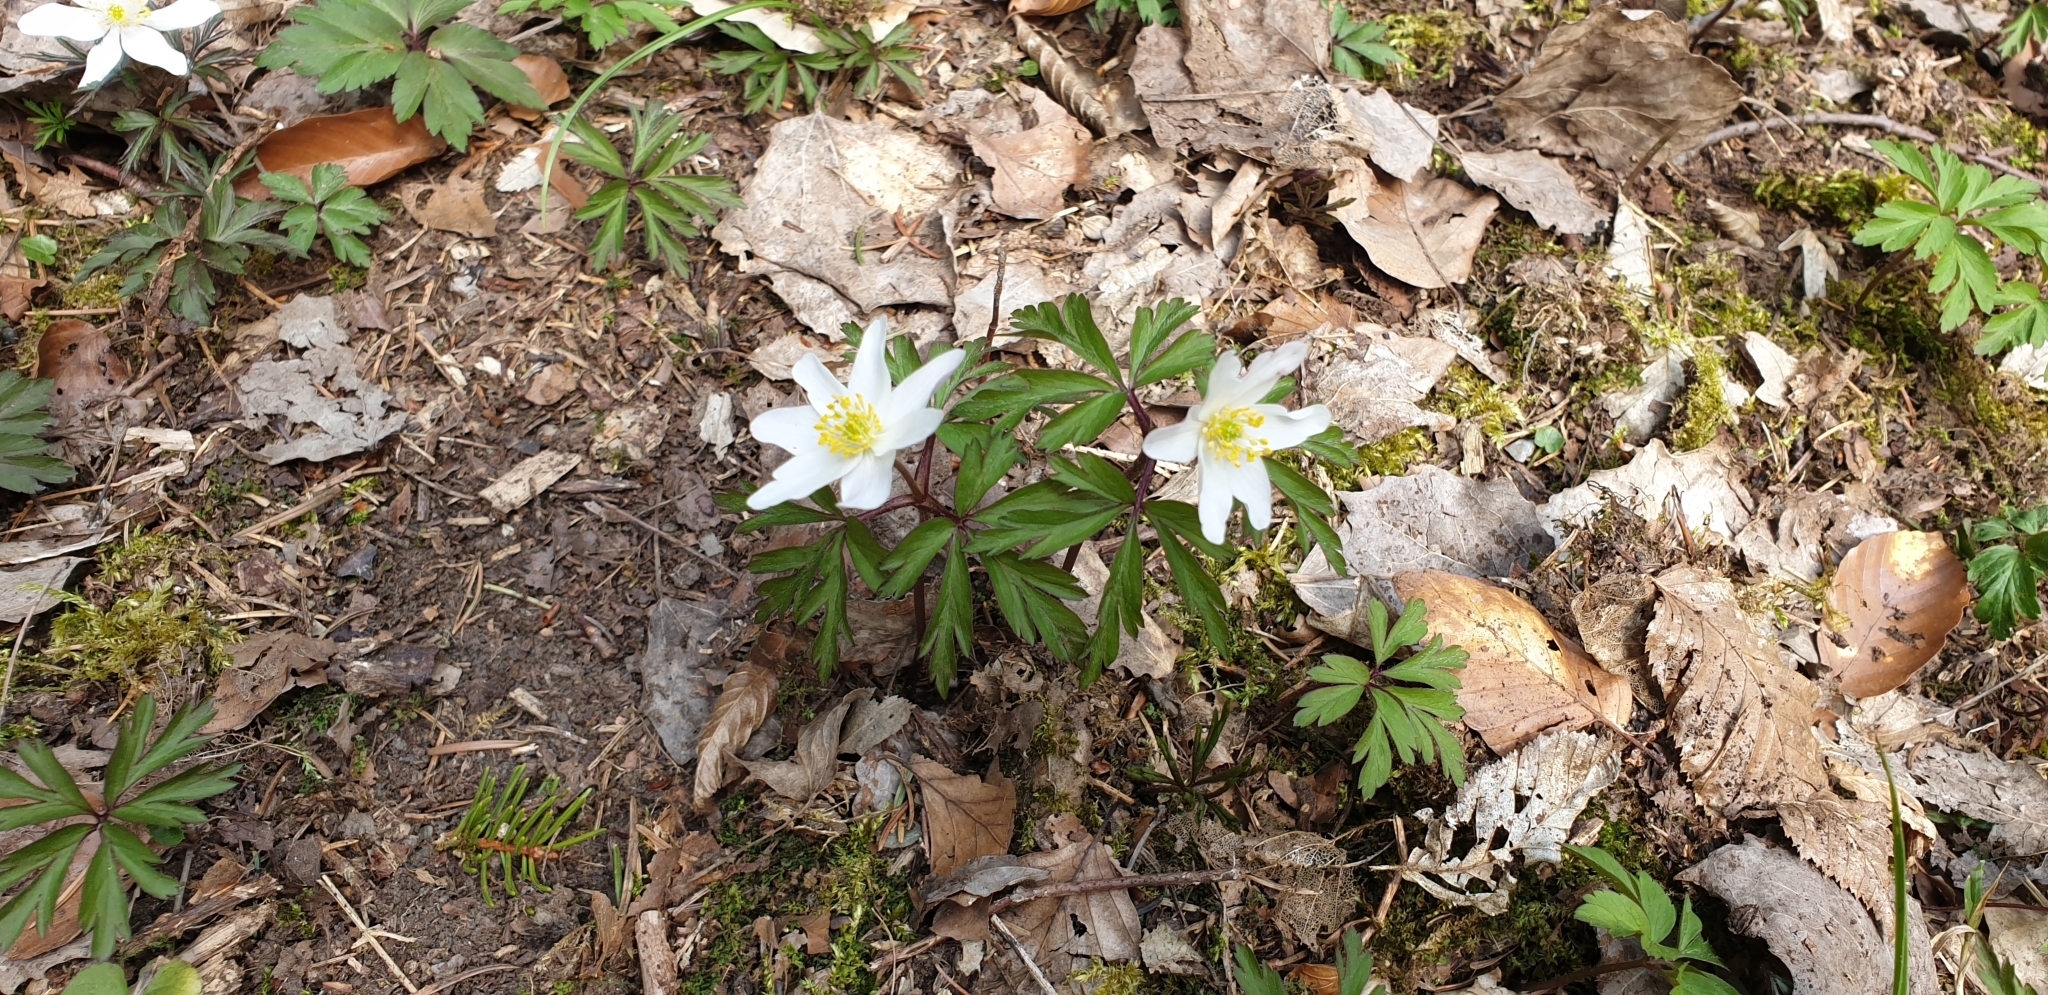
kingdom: Plantae
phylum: Tracheophyta
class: Magnoliopsida
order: Ranunculales
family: Ranunculaceae
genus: Anemone
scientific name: Anemone nemorosa
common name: Wood anemone
